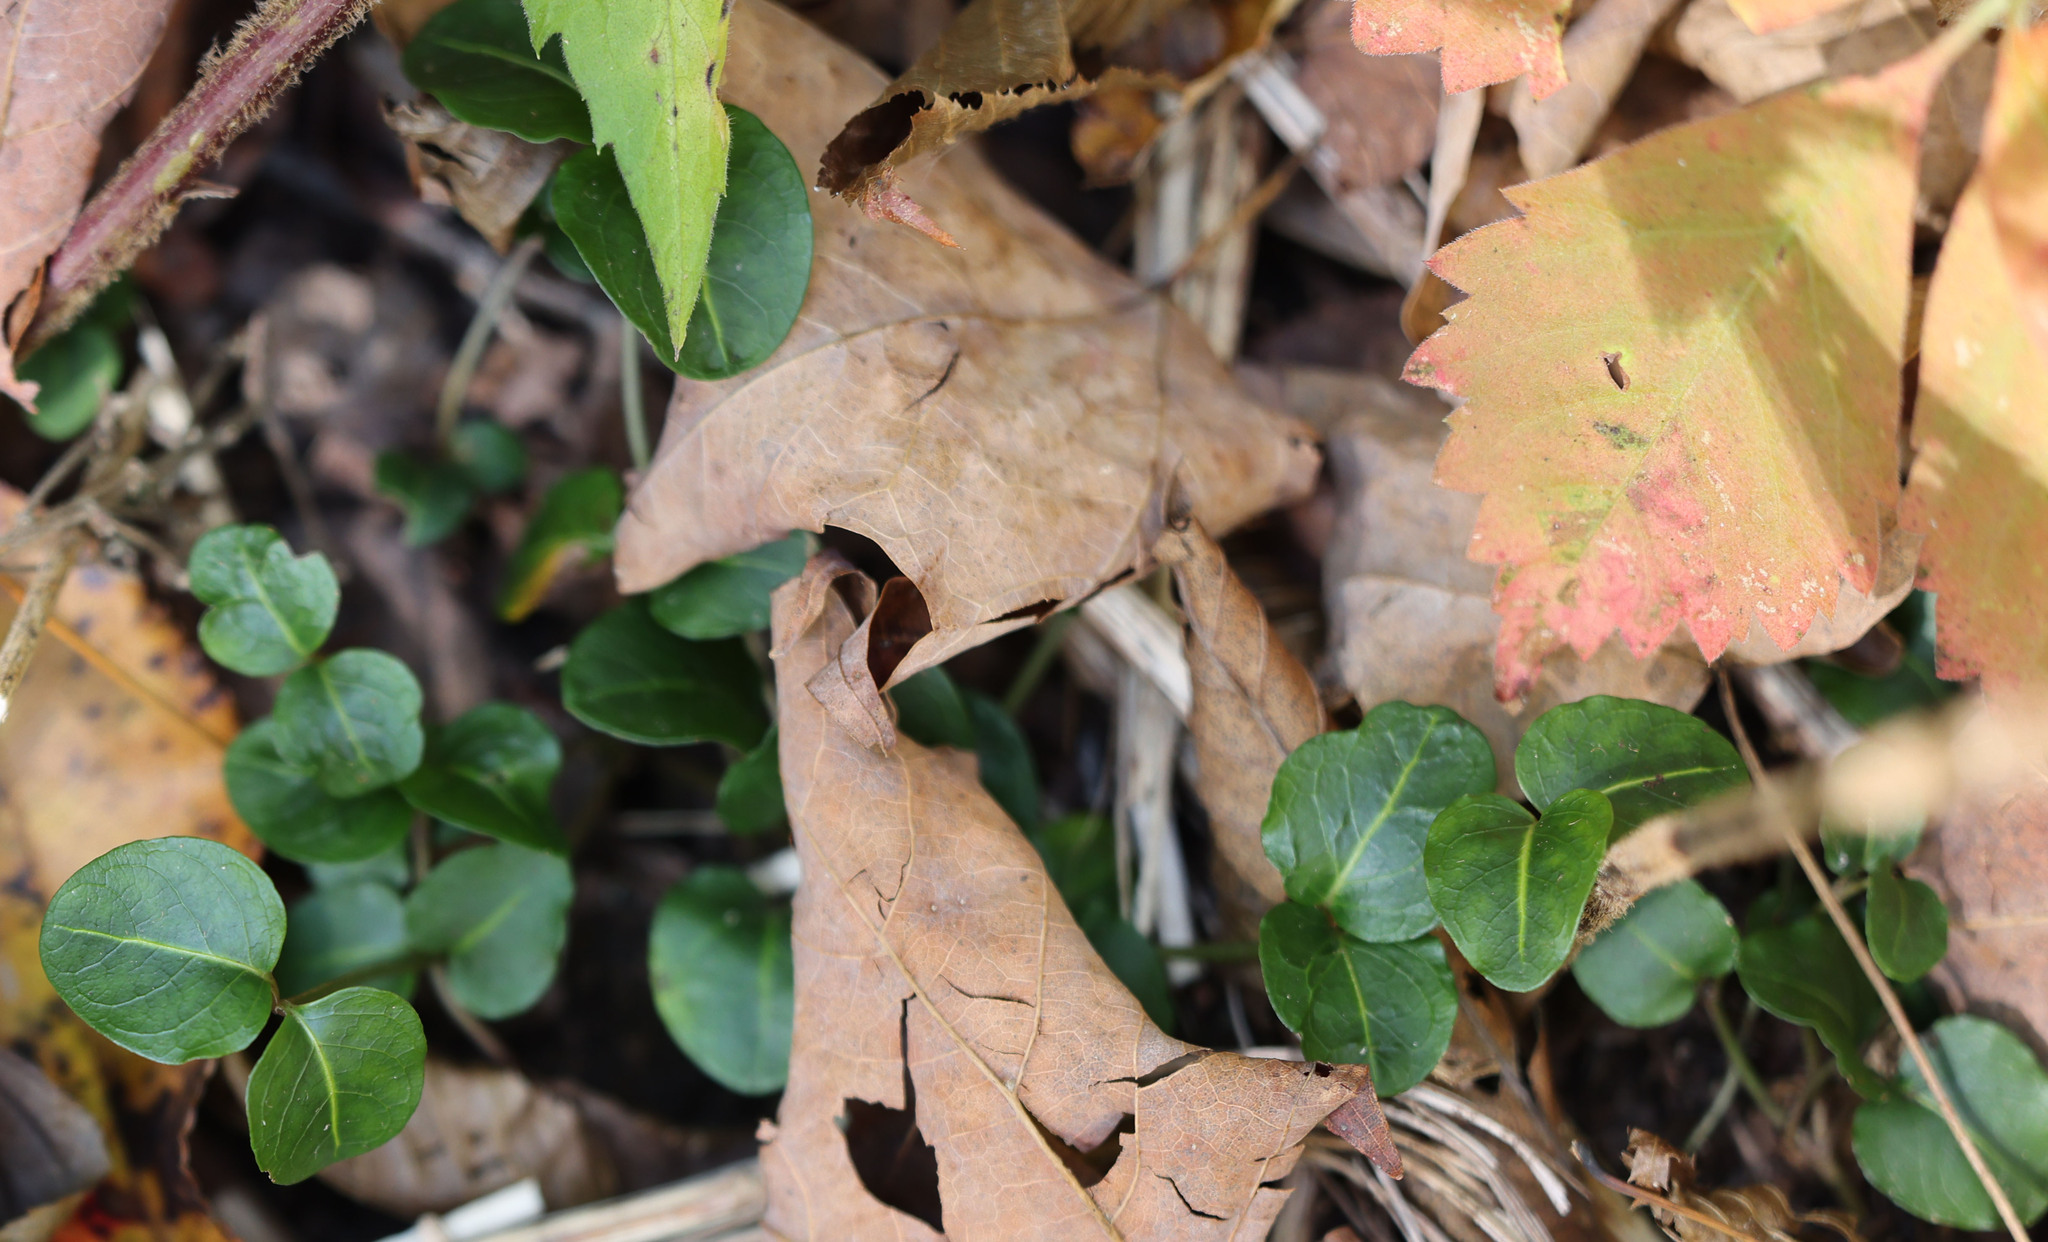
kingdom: Plantae
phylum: Tracheophyta
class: Magnoliopsida
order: Gentianales
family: Rubiaceae
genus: Mitchella
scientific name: Mitchella repens
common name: Partridge-berry
